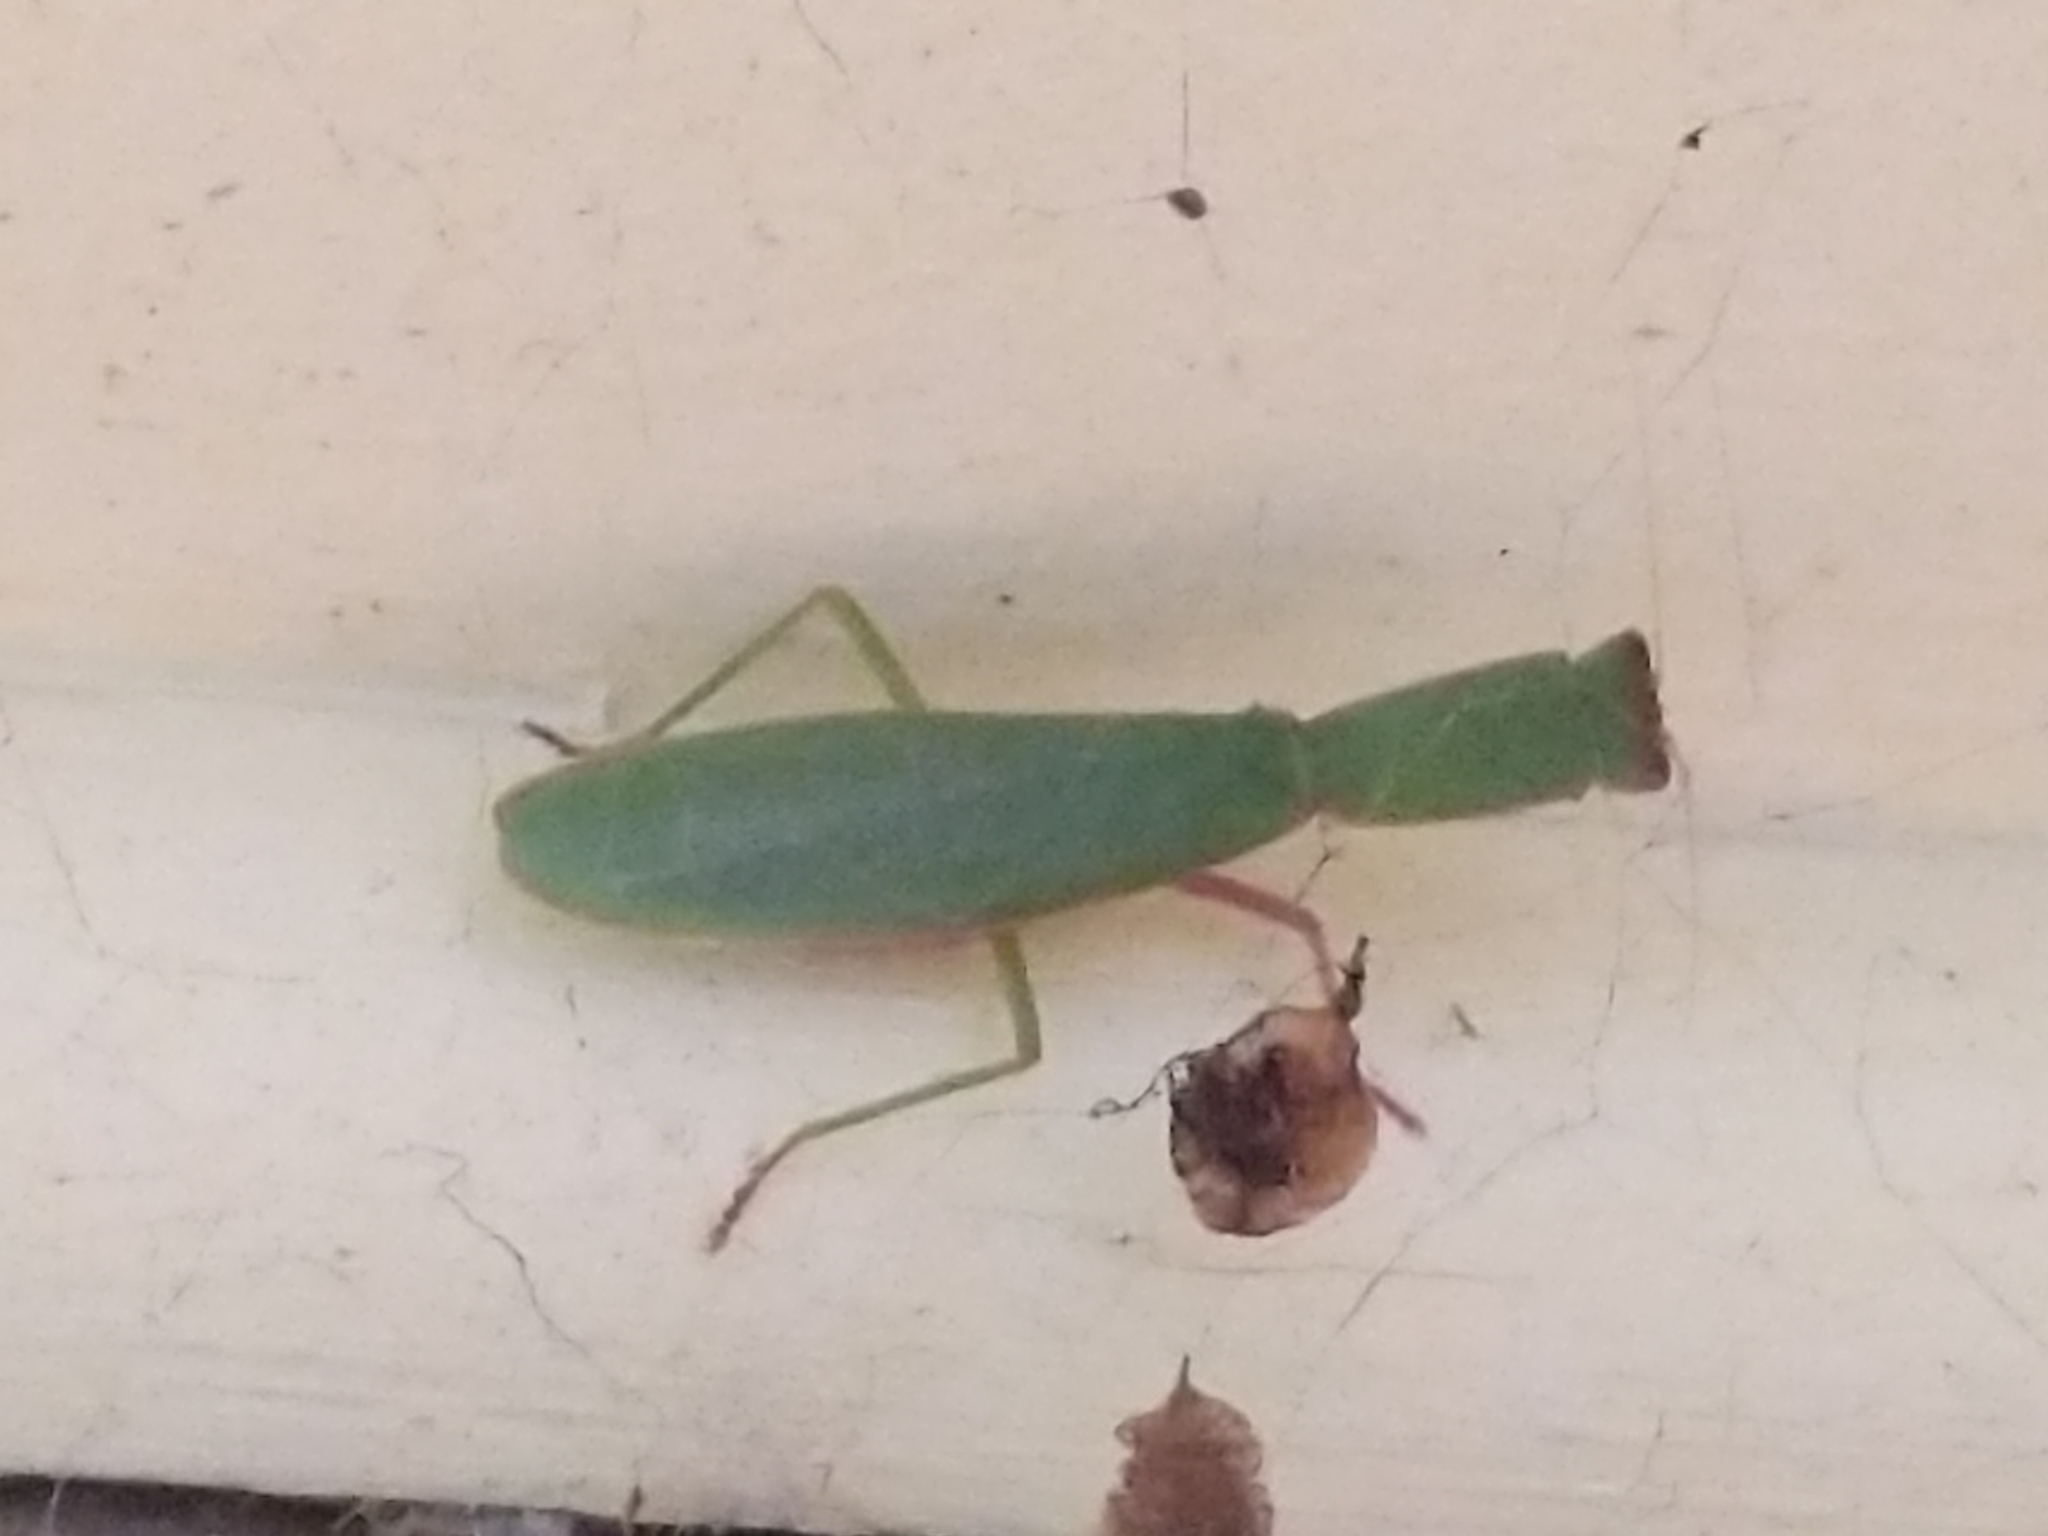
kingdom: Animalia
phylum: Arthropoda
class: Insecta
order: Mantodea
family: Mantidae
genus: Orthodera
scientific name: Orthodera ministralis
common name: Mantis
